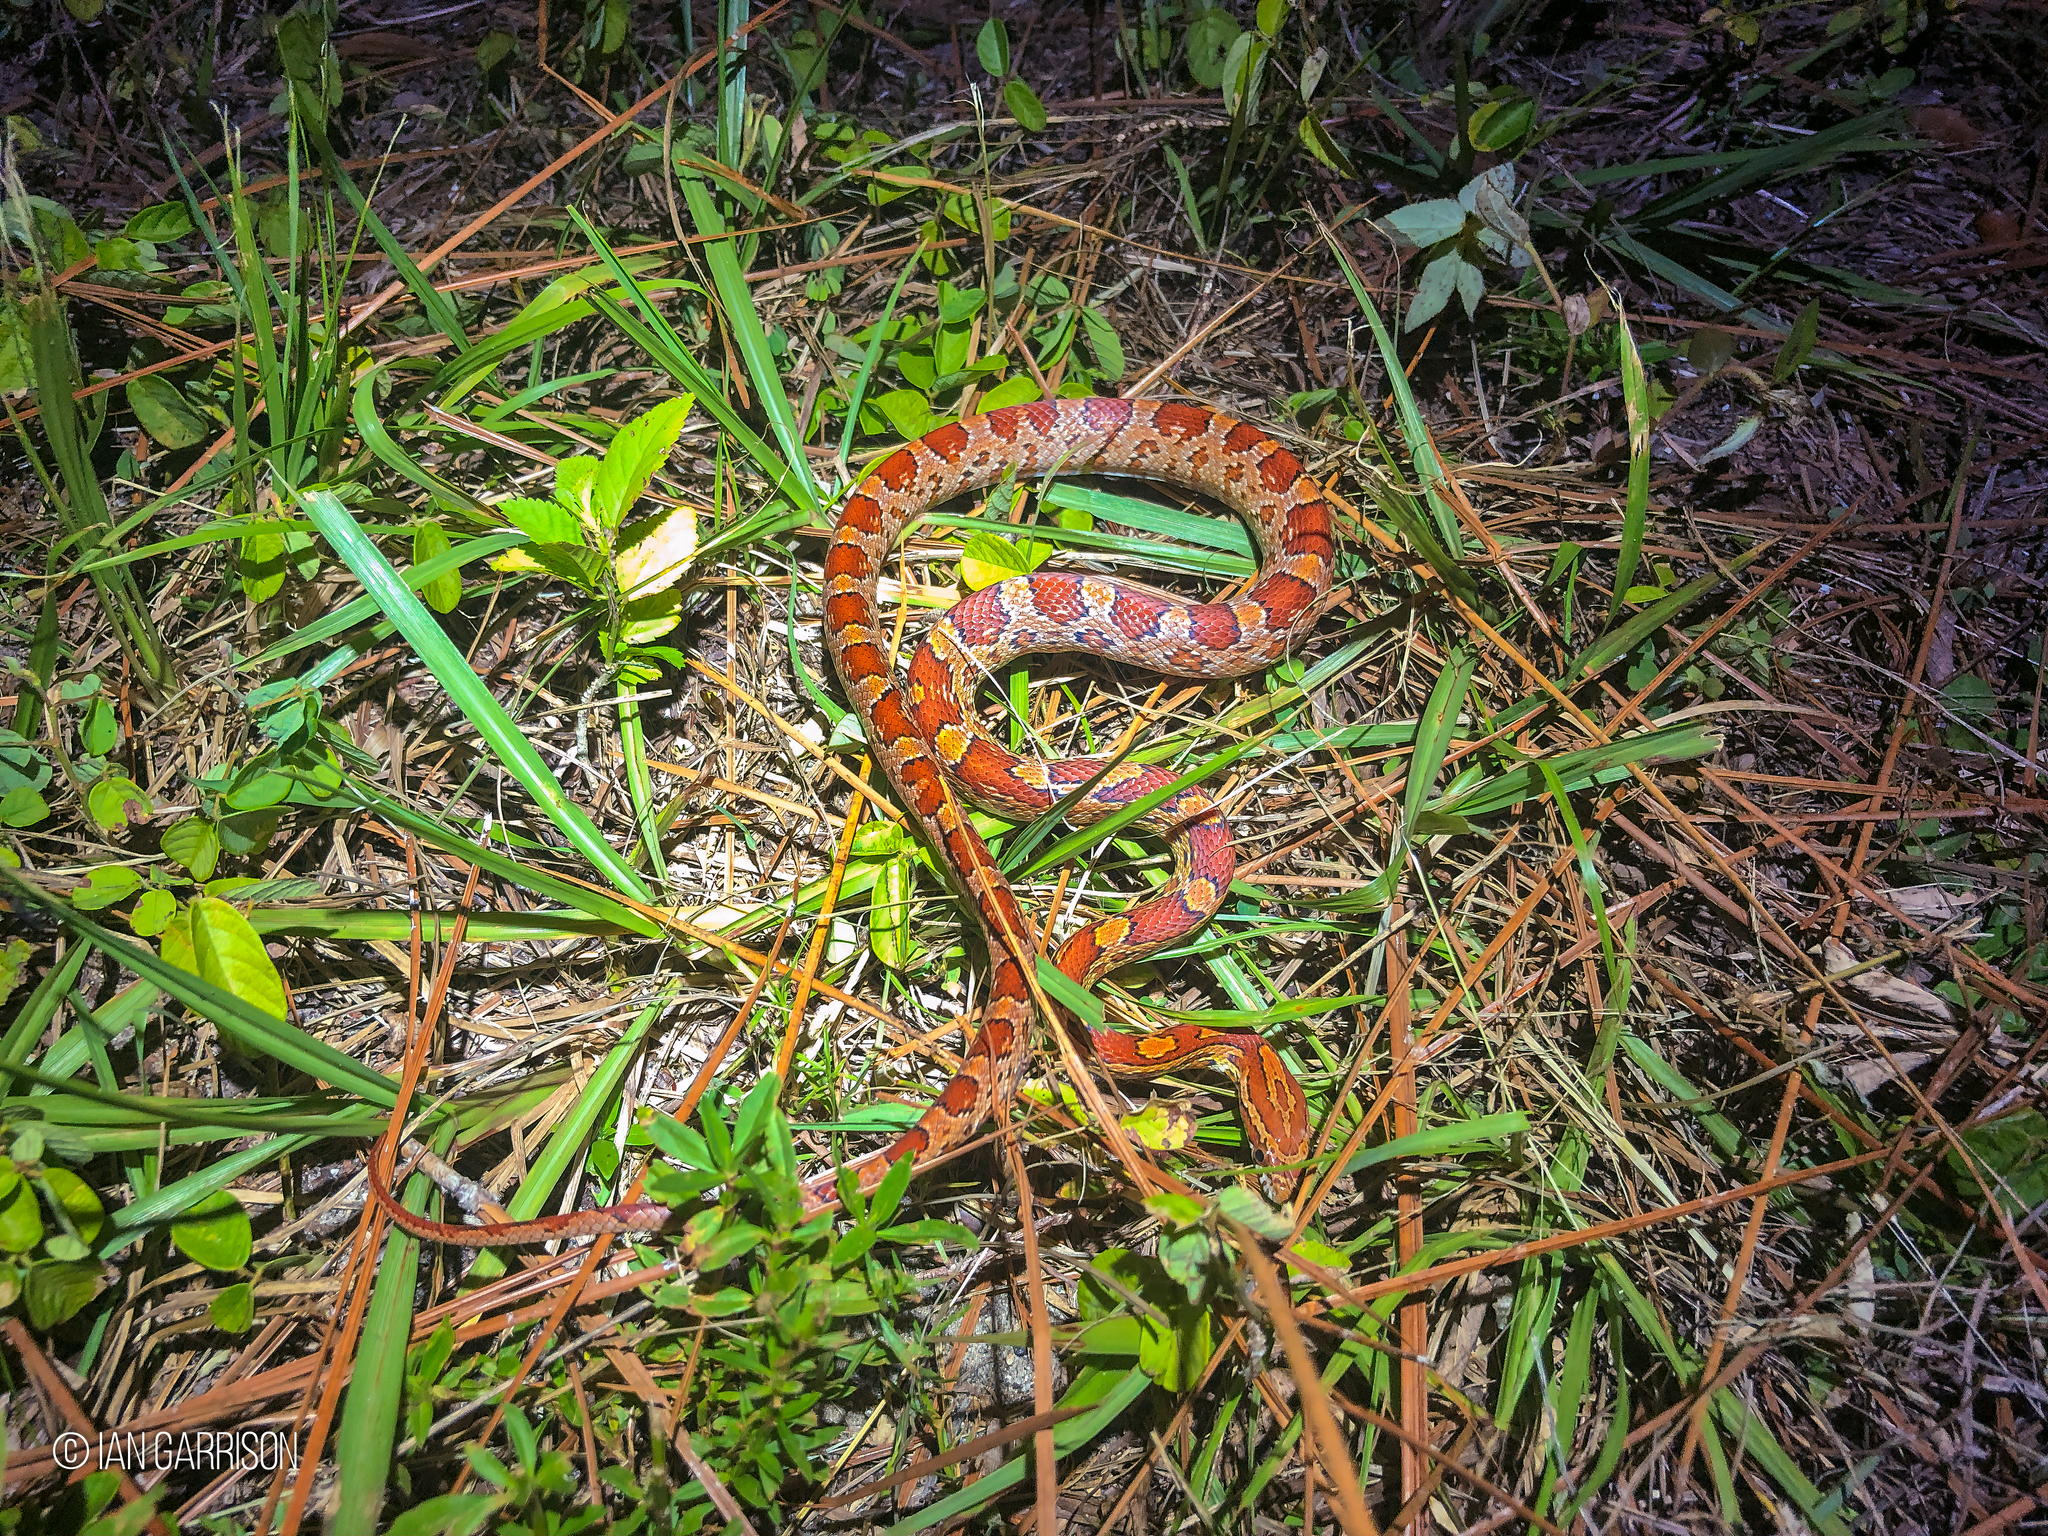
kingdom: Animalia
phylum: Chordata
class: Squamata
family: Colubridae
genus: Pantherophis
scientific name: Pantherophis guttatus
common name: Red cornsnake
